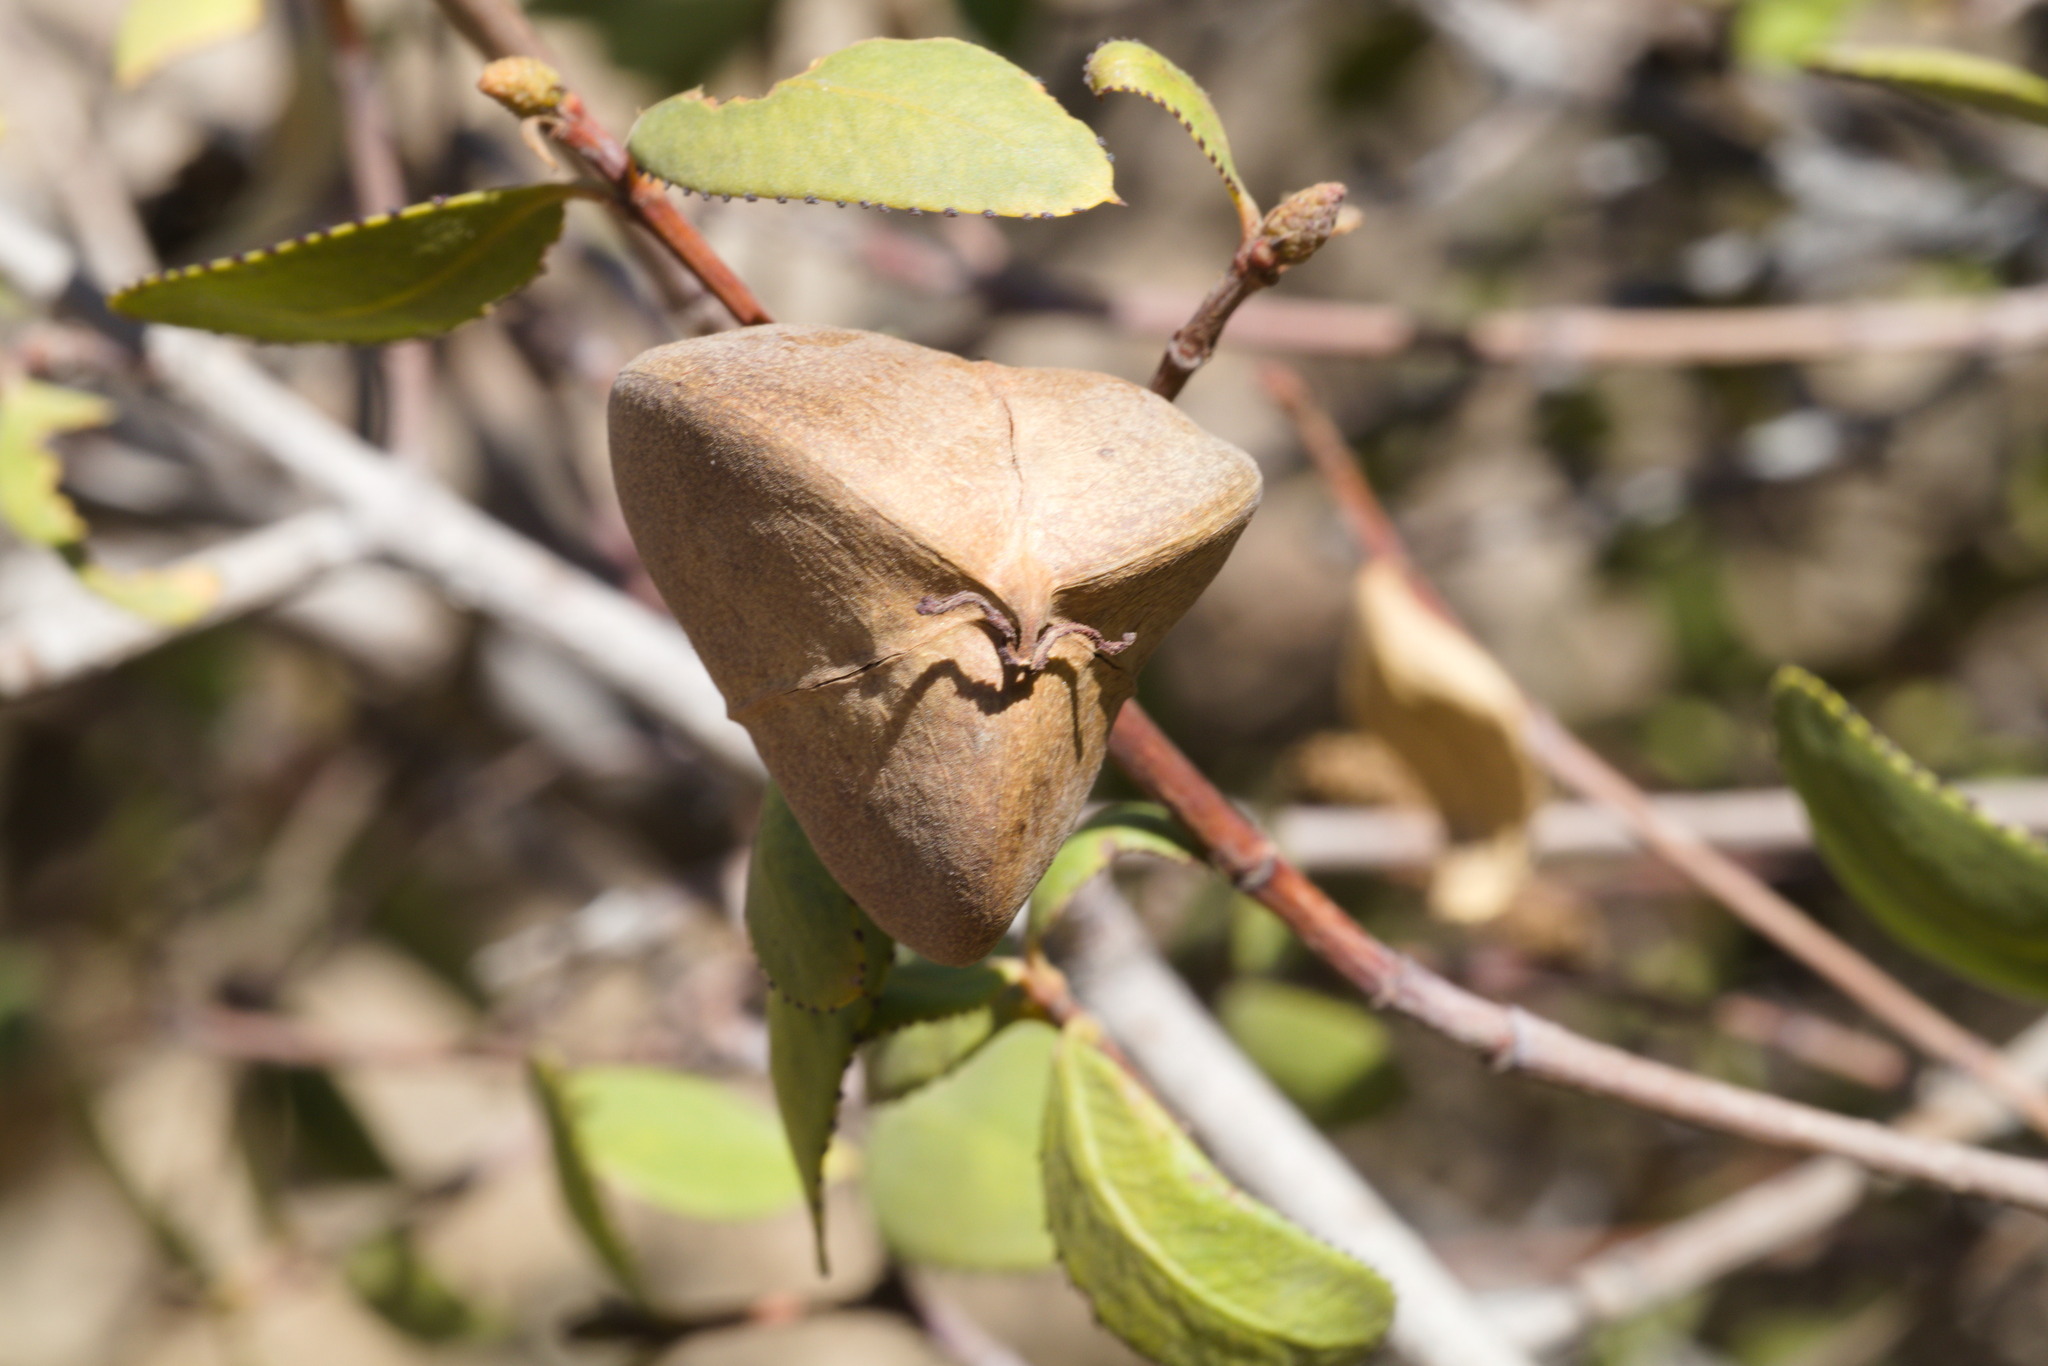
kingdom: Plantae
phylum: Tracheophyta
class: Magnoliopsida
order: Malpighiales
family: Euphorbiaceae
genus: Colliguaja
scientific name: Colliguaja odorifera
